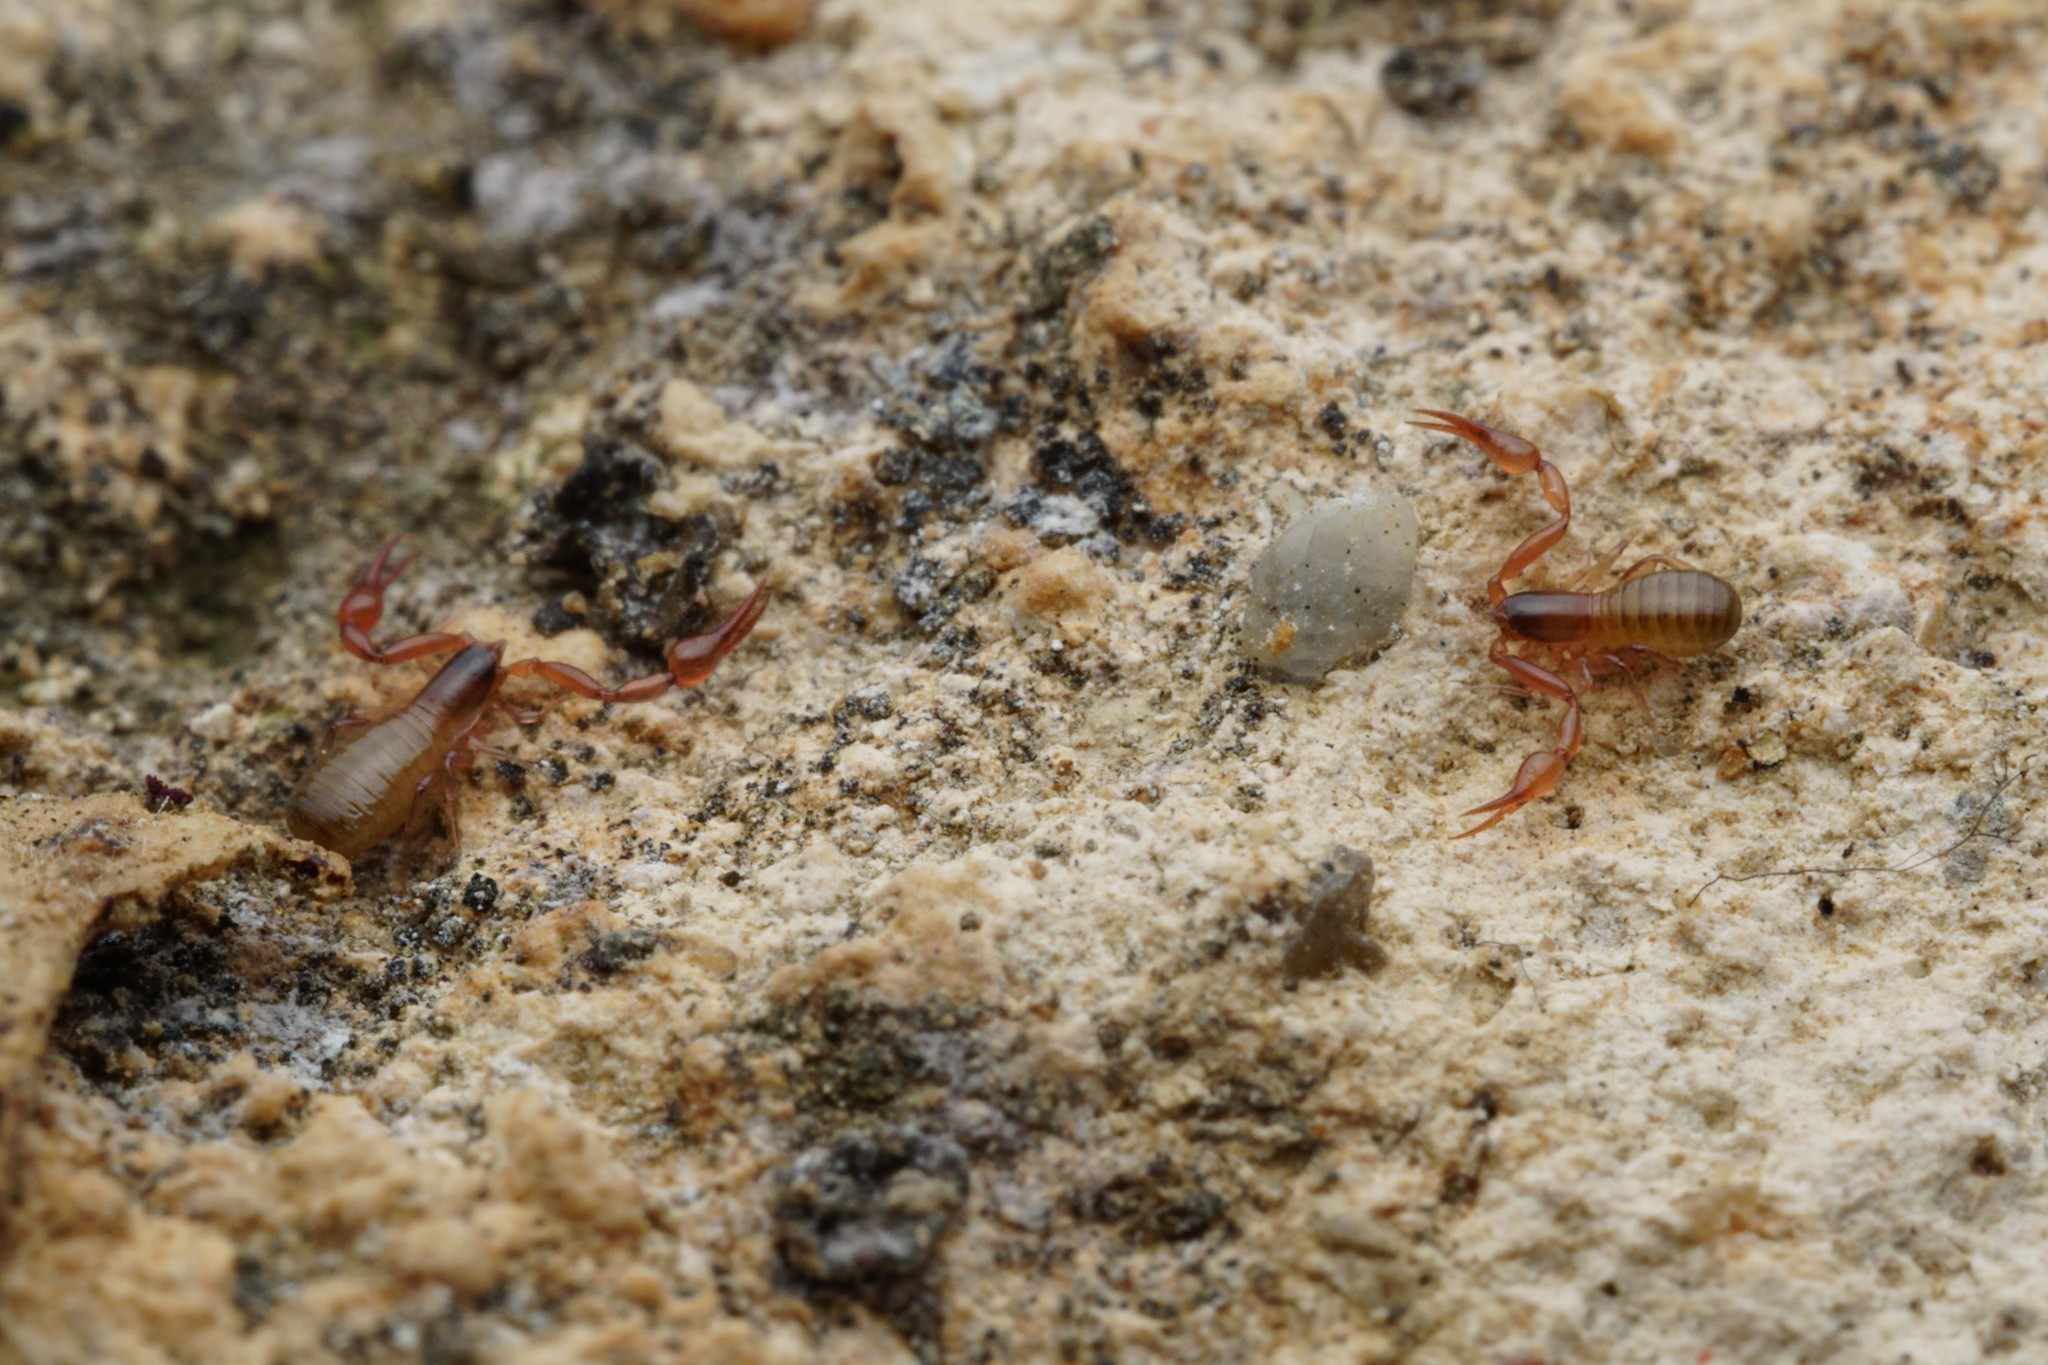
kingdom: Animalia
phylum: Arthropoda
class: Arachnida
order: Pseudoscorpiones
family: Ideoroncidae
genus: Albiorix
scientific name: Albiorix parvidentatus
